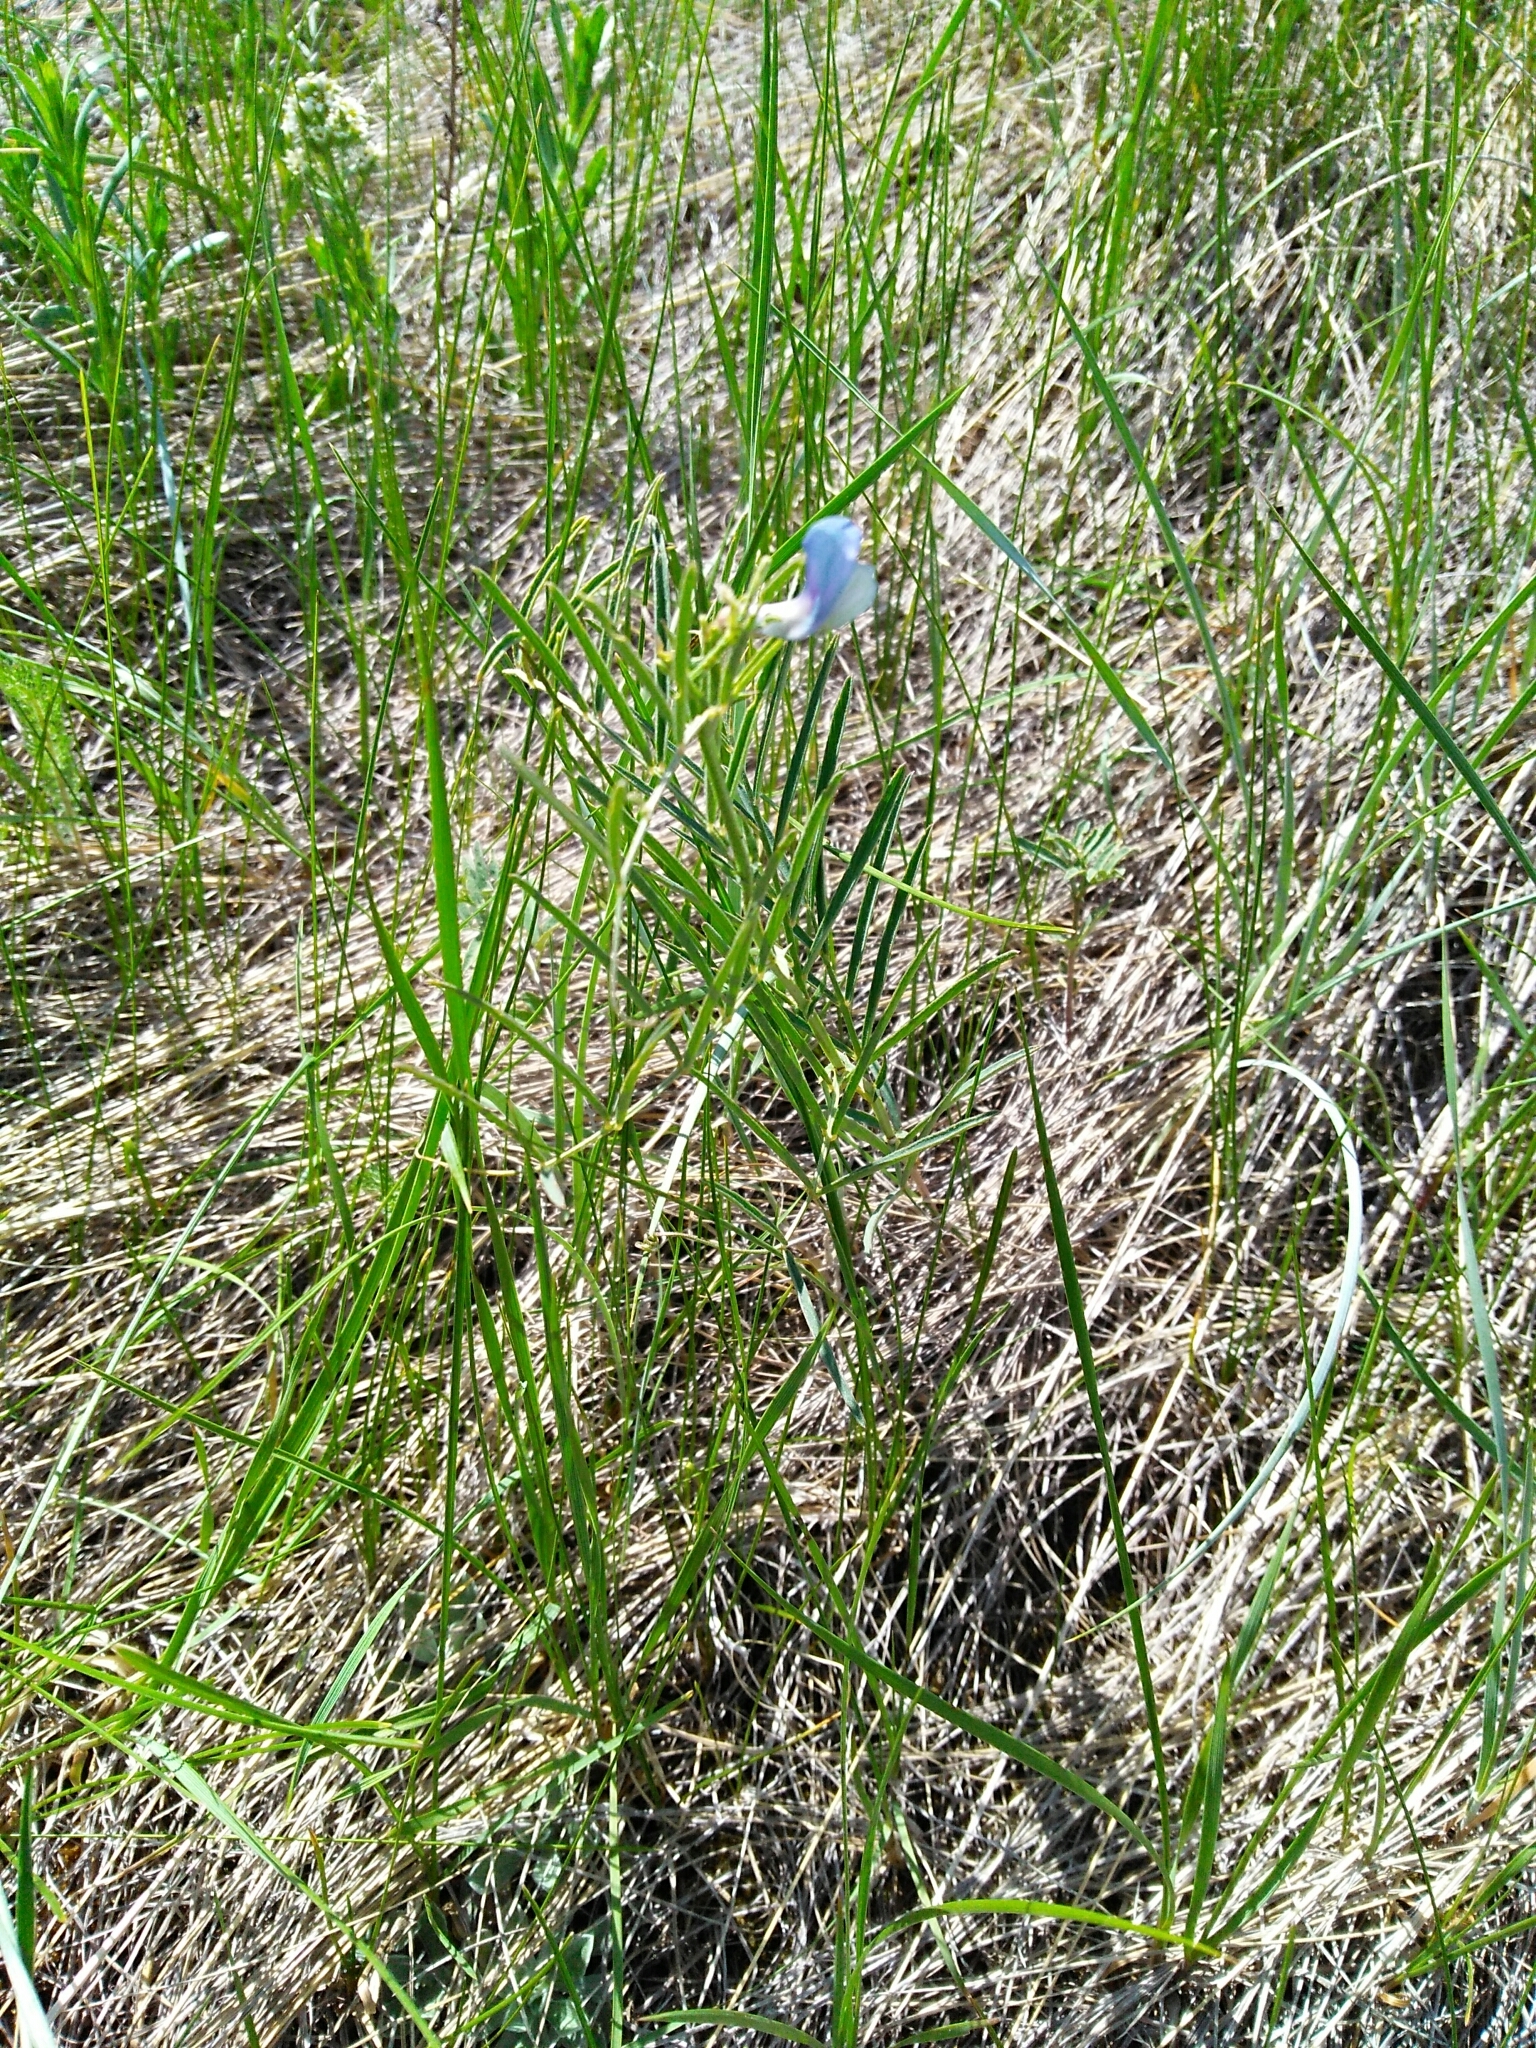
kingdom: Plantae
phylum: Tracheophyta
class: Magnoliopsida
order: Fabales
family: Fabaceae
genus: Vicia
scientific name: Vicia americana
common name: American vetch
